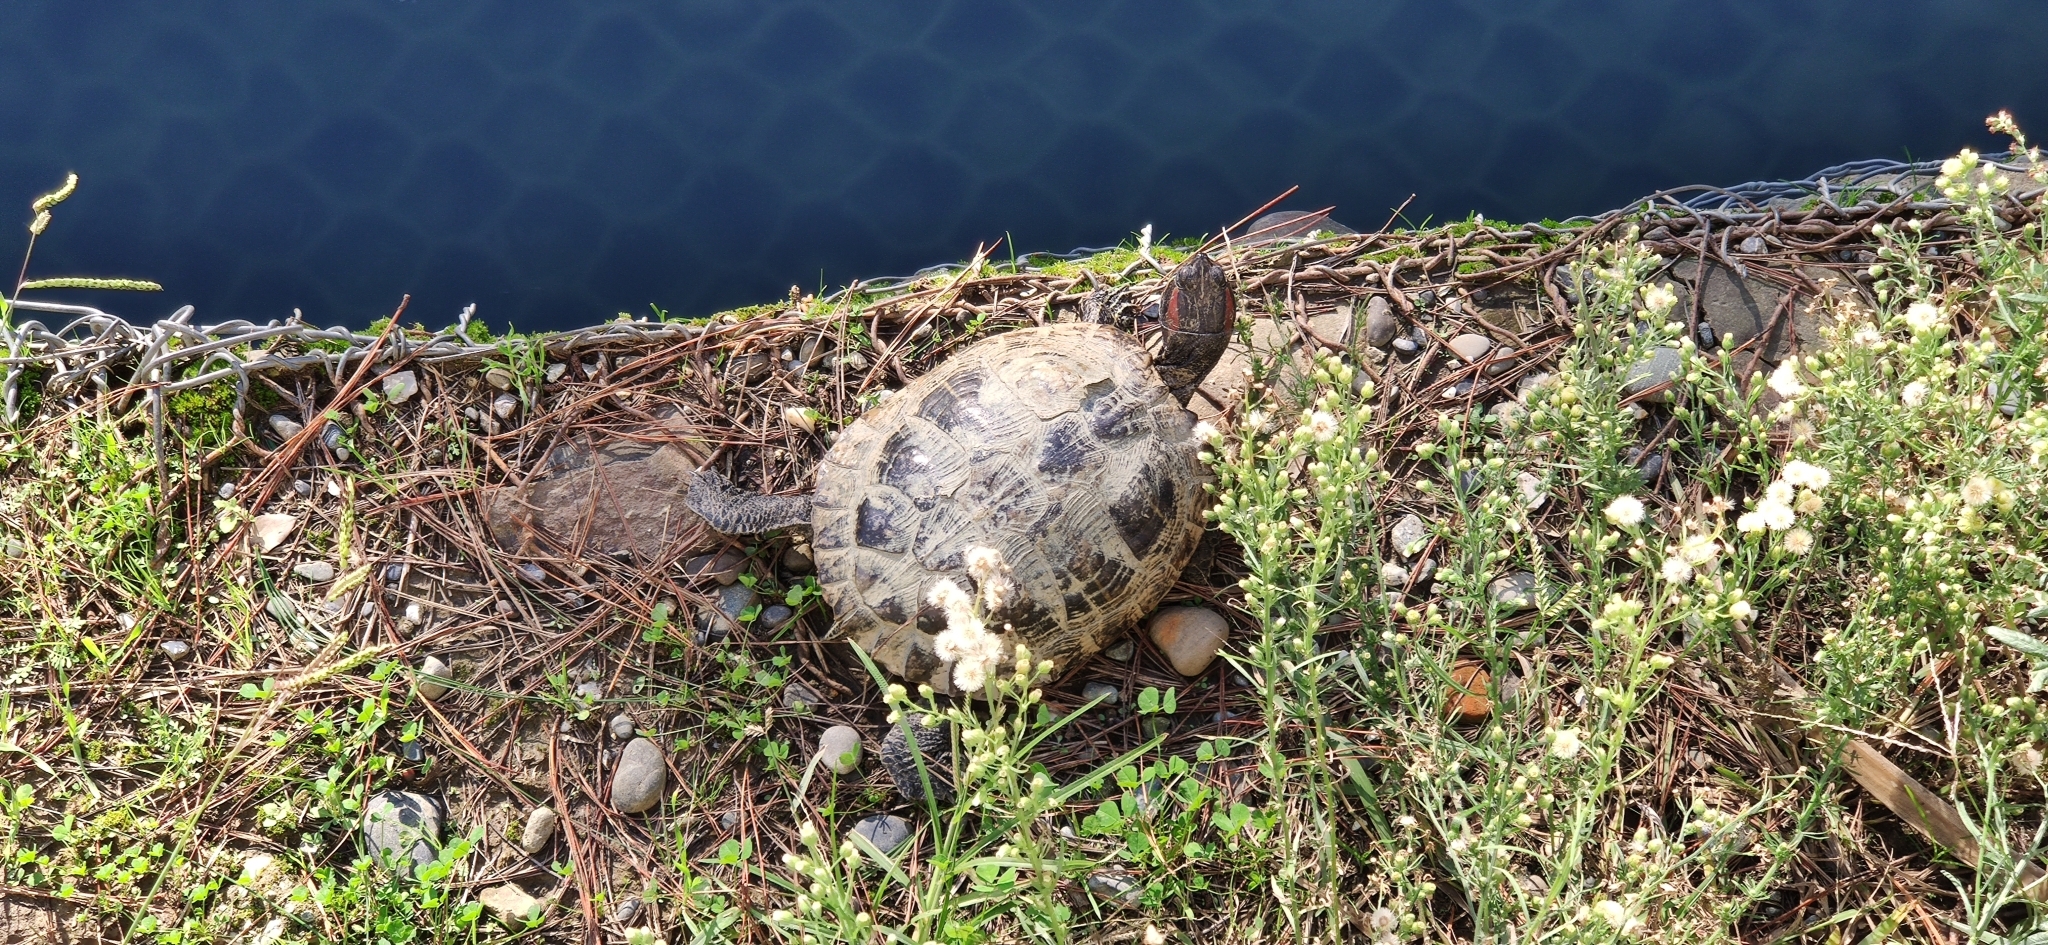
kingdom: Animalia
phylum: Chordata
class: Testudines
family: Emydidae
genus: Trachemys
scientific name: Trachemys scripta
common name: Slider
